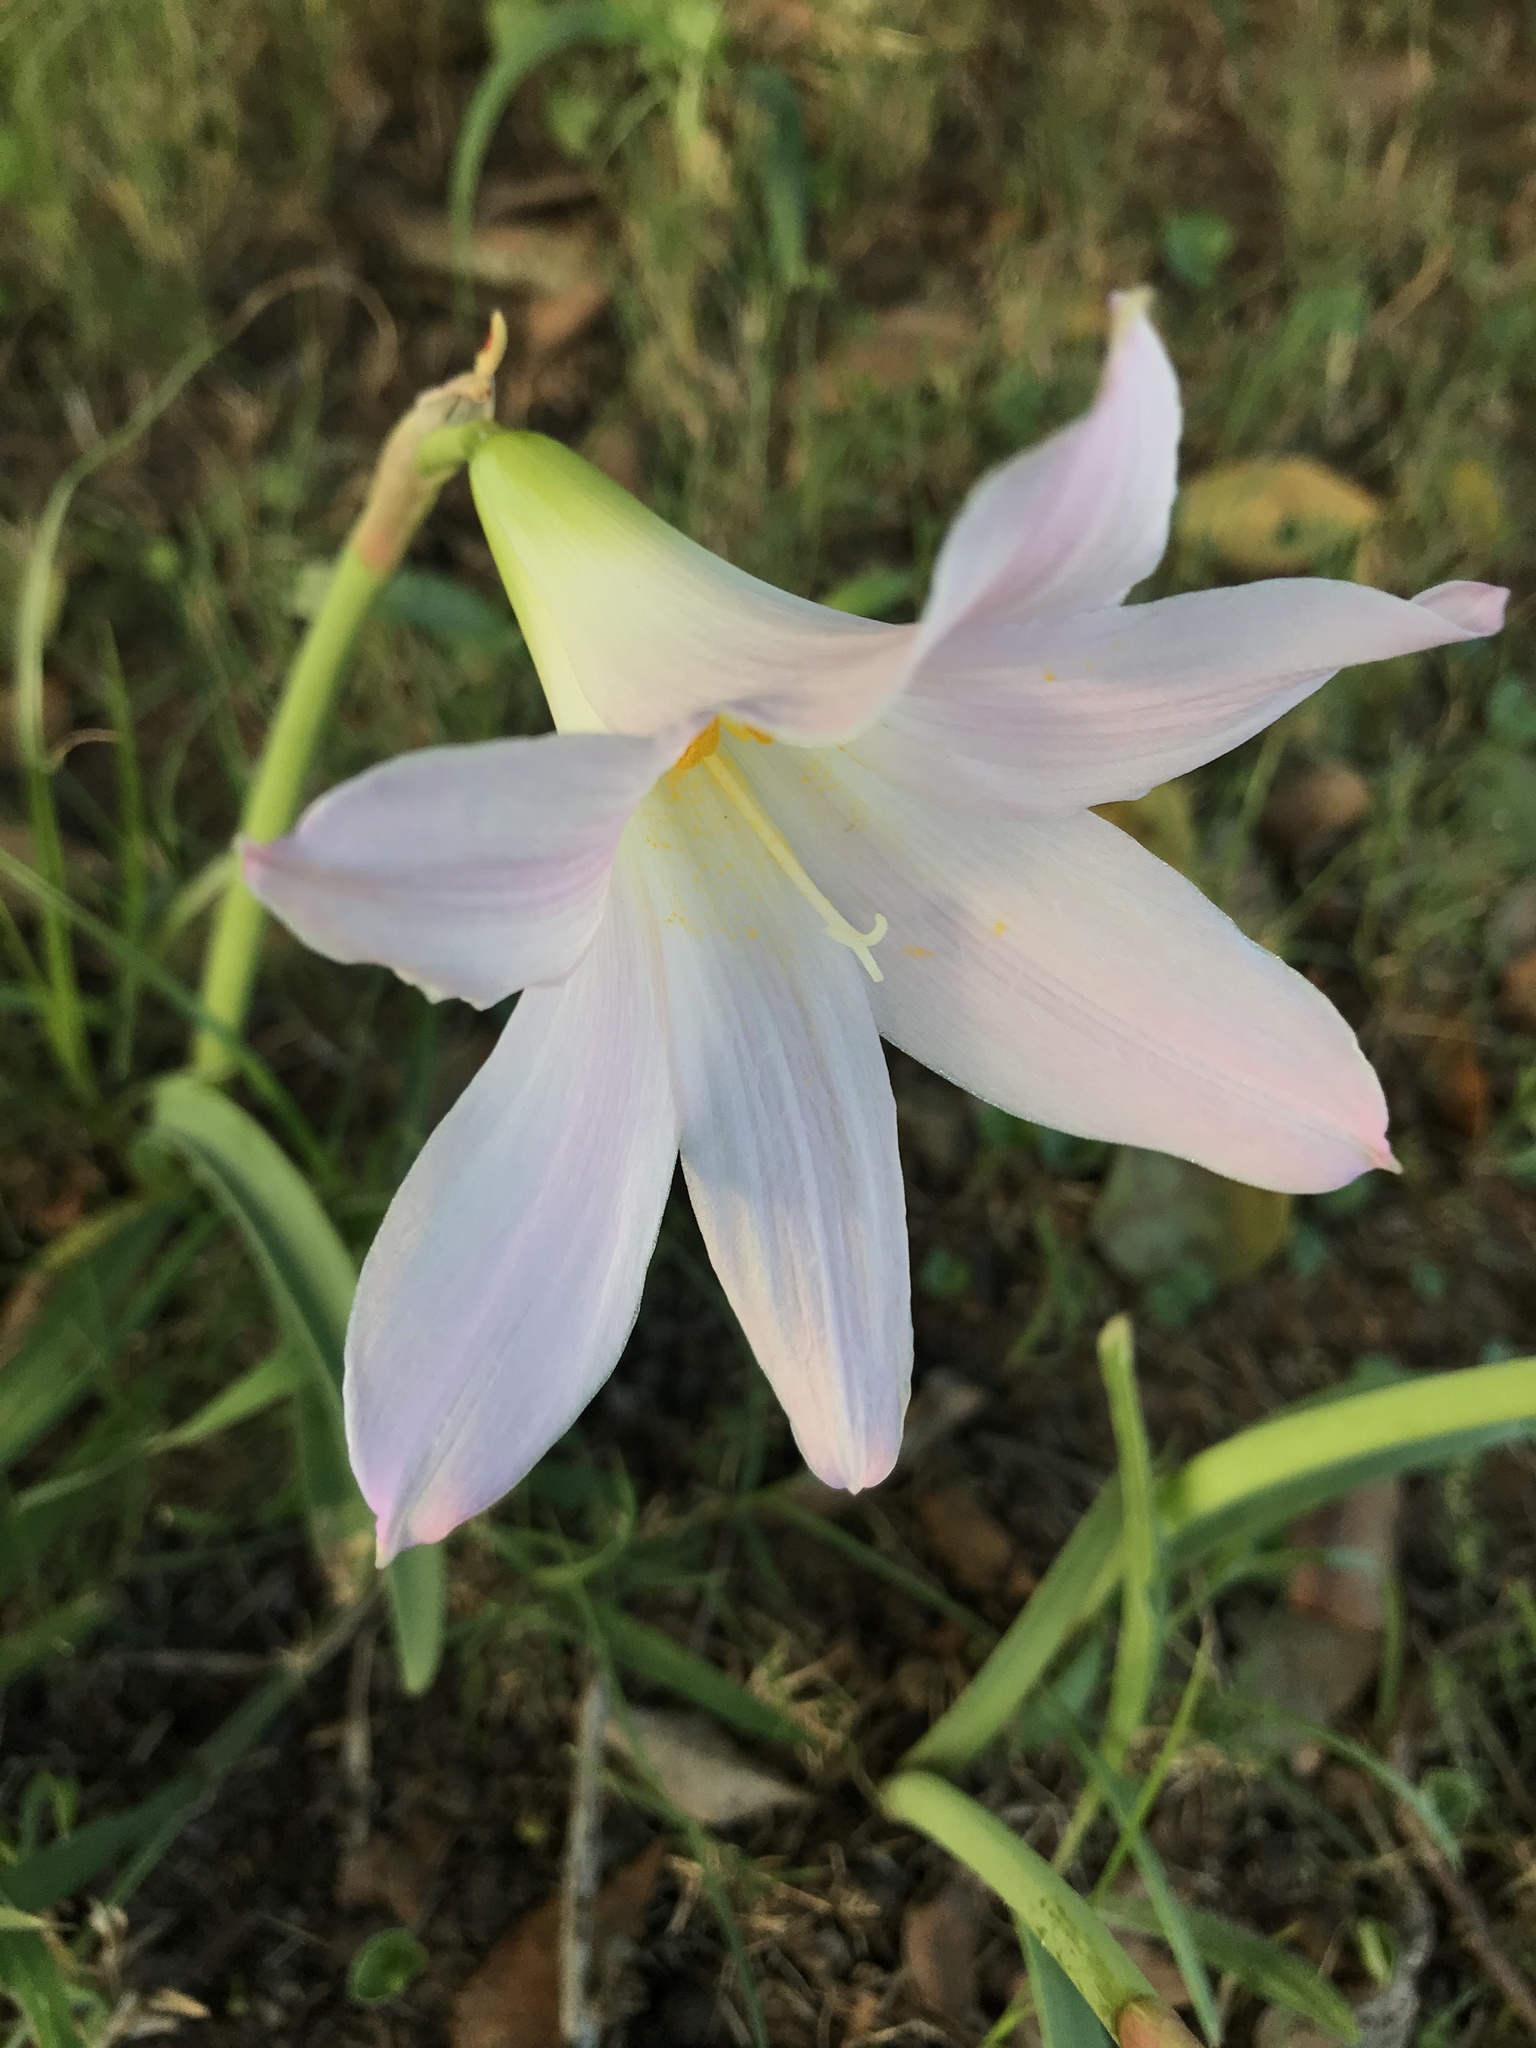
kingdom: Plantae
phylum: Tracheophyta
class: Liliopsida
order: Asparagales
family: Amaryllidaceae
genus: Zephyranthes
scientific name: Zephyranthes robusta
